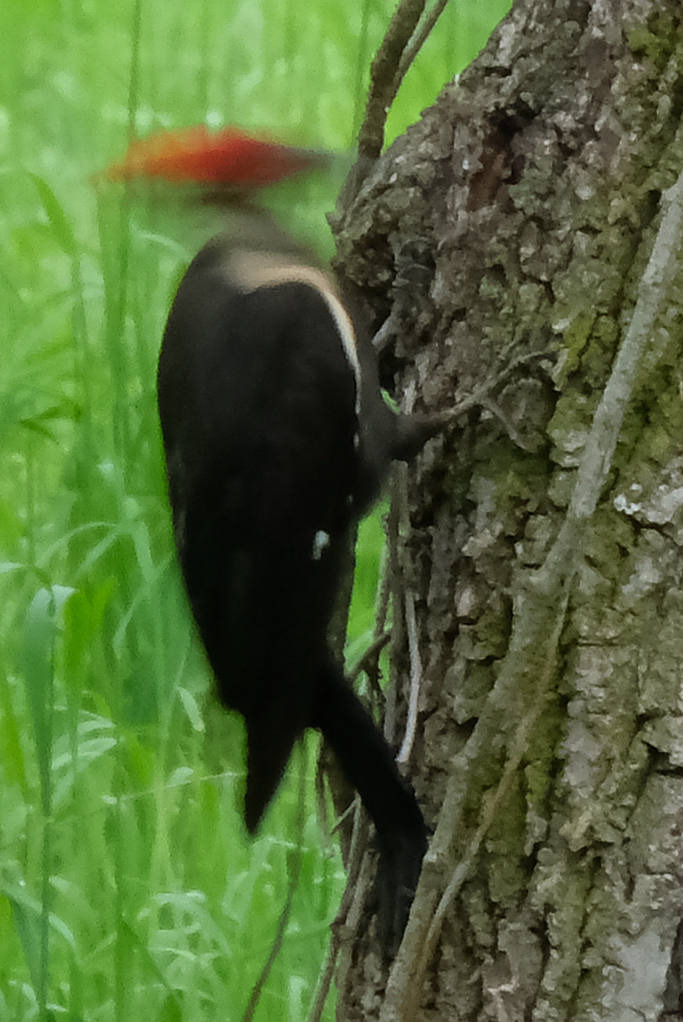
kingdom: Animalia
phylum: Chordata
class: Aves
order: Piciformes
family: Picidae
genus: Dryocopus
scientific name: Dryocopus pileatus
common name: Pileated woodpecker
